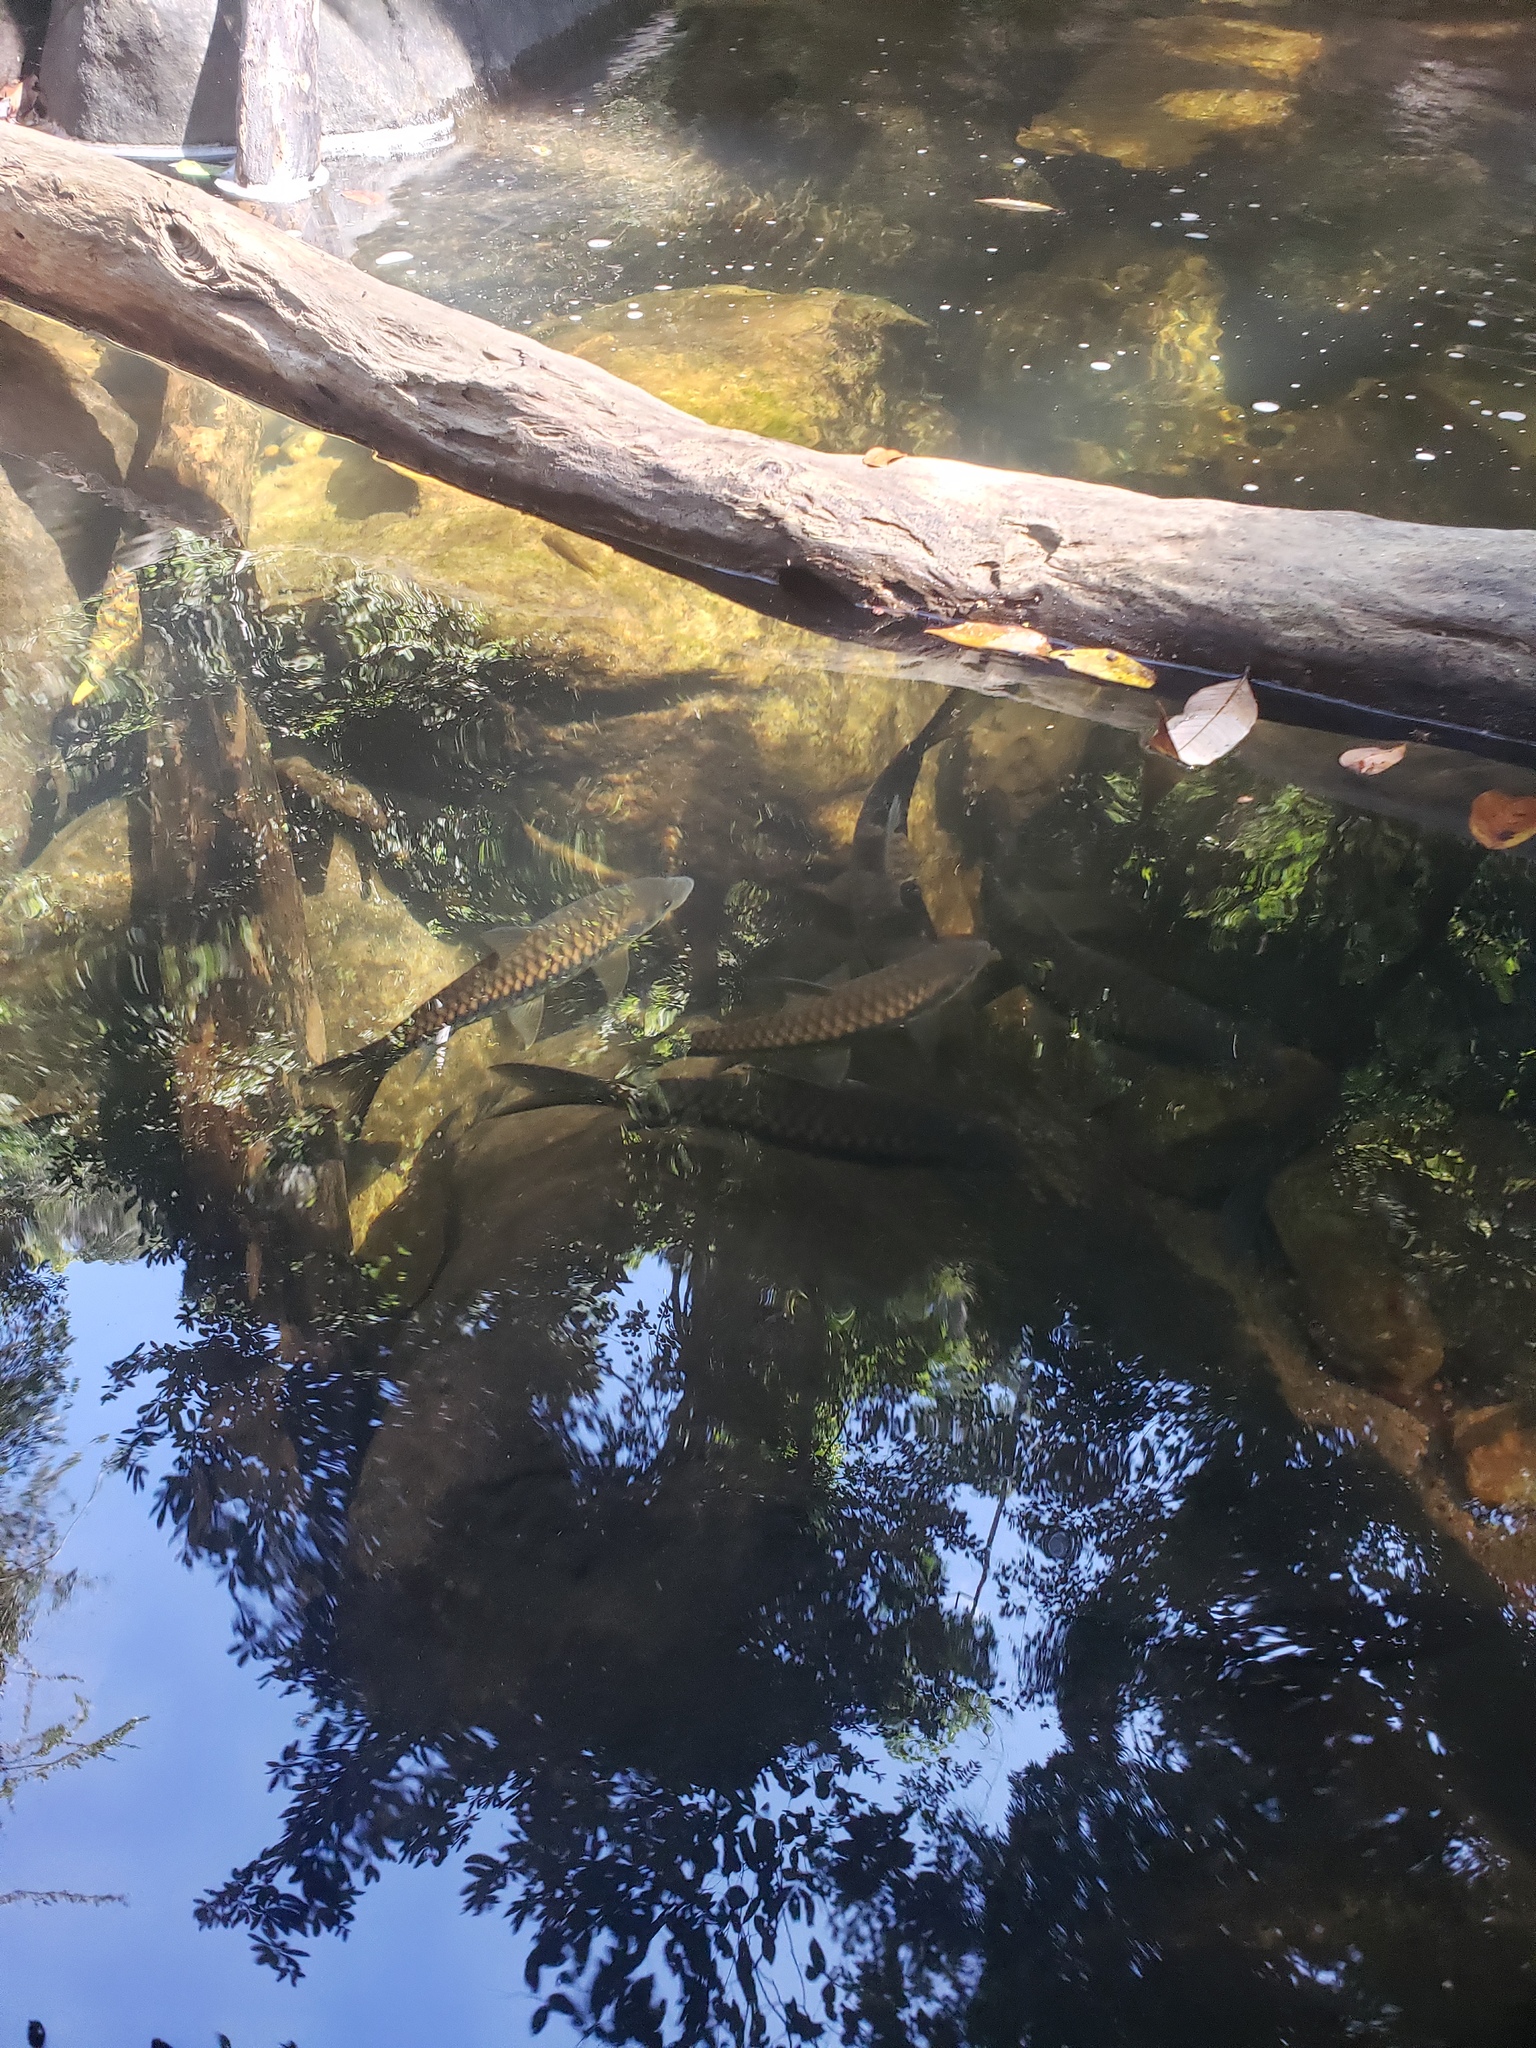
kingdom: Animalia
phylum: Chordata
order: Cypriniformes
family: Cyprinidae
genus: Tor
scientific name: Tor khudree
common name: Black mahseer
